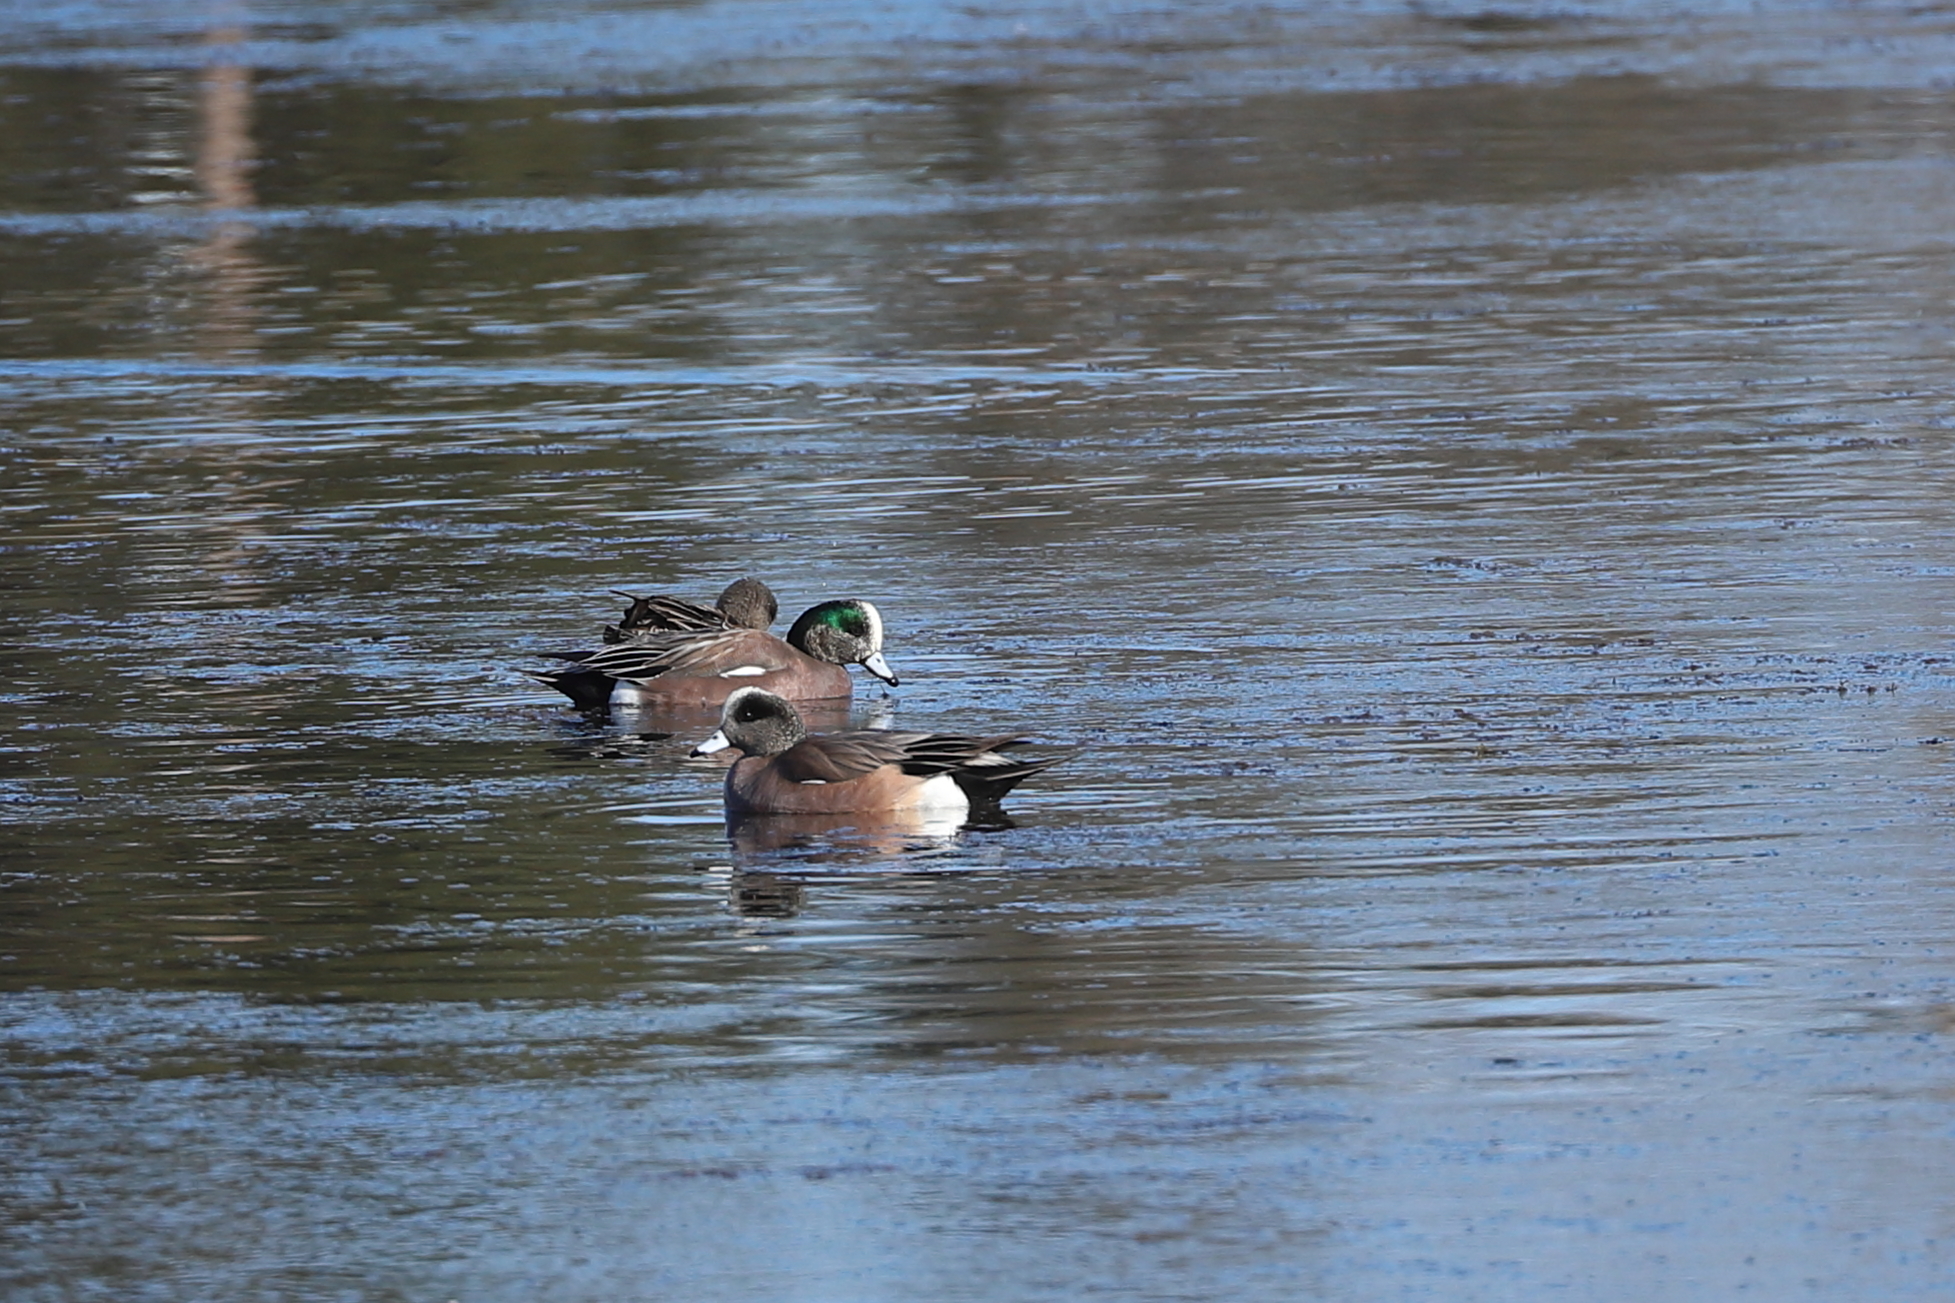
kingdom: Animalia
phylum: Chordata
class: Aves
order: Anseriformes
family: Anatidae
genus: Mareca
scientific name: Mareca americana
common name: American wigeon
